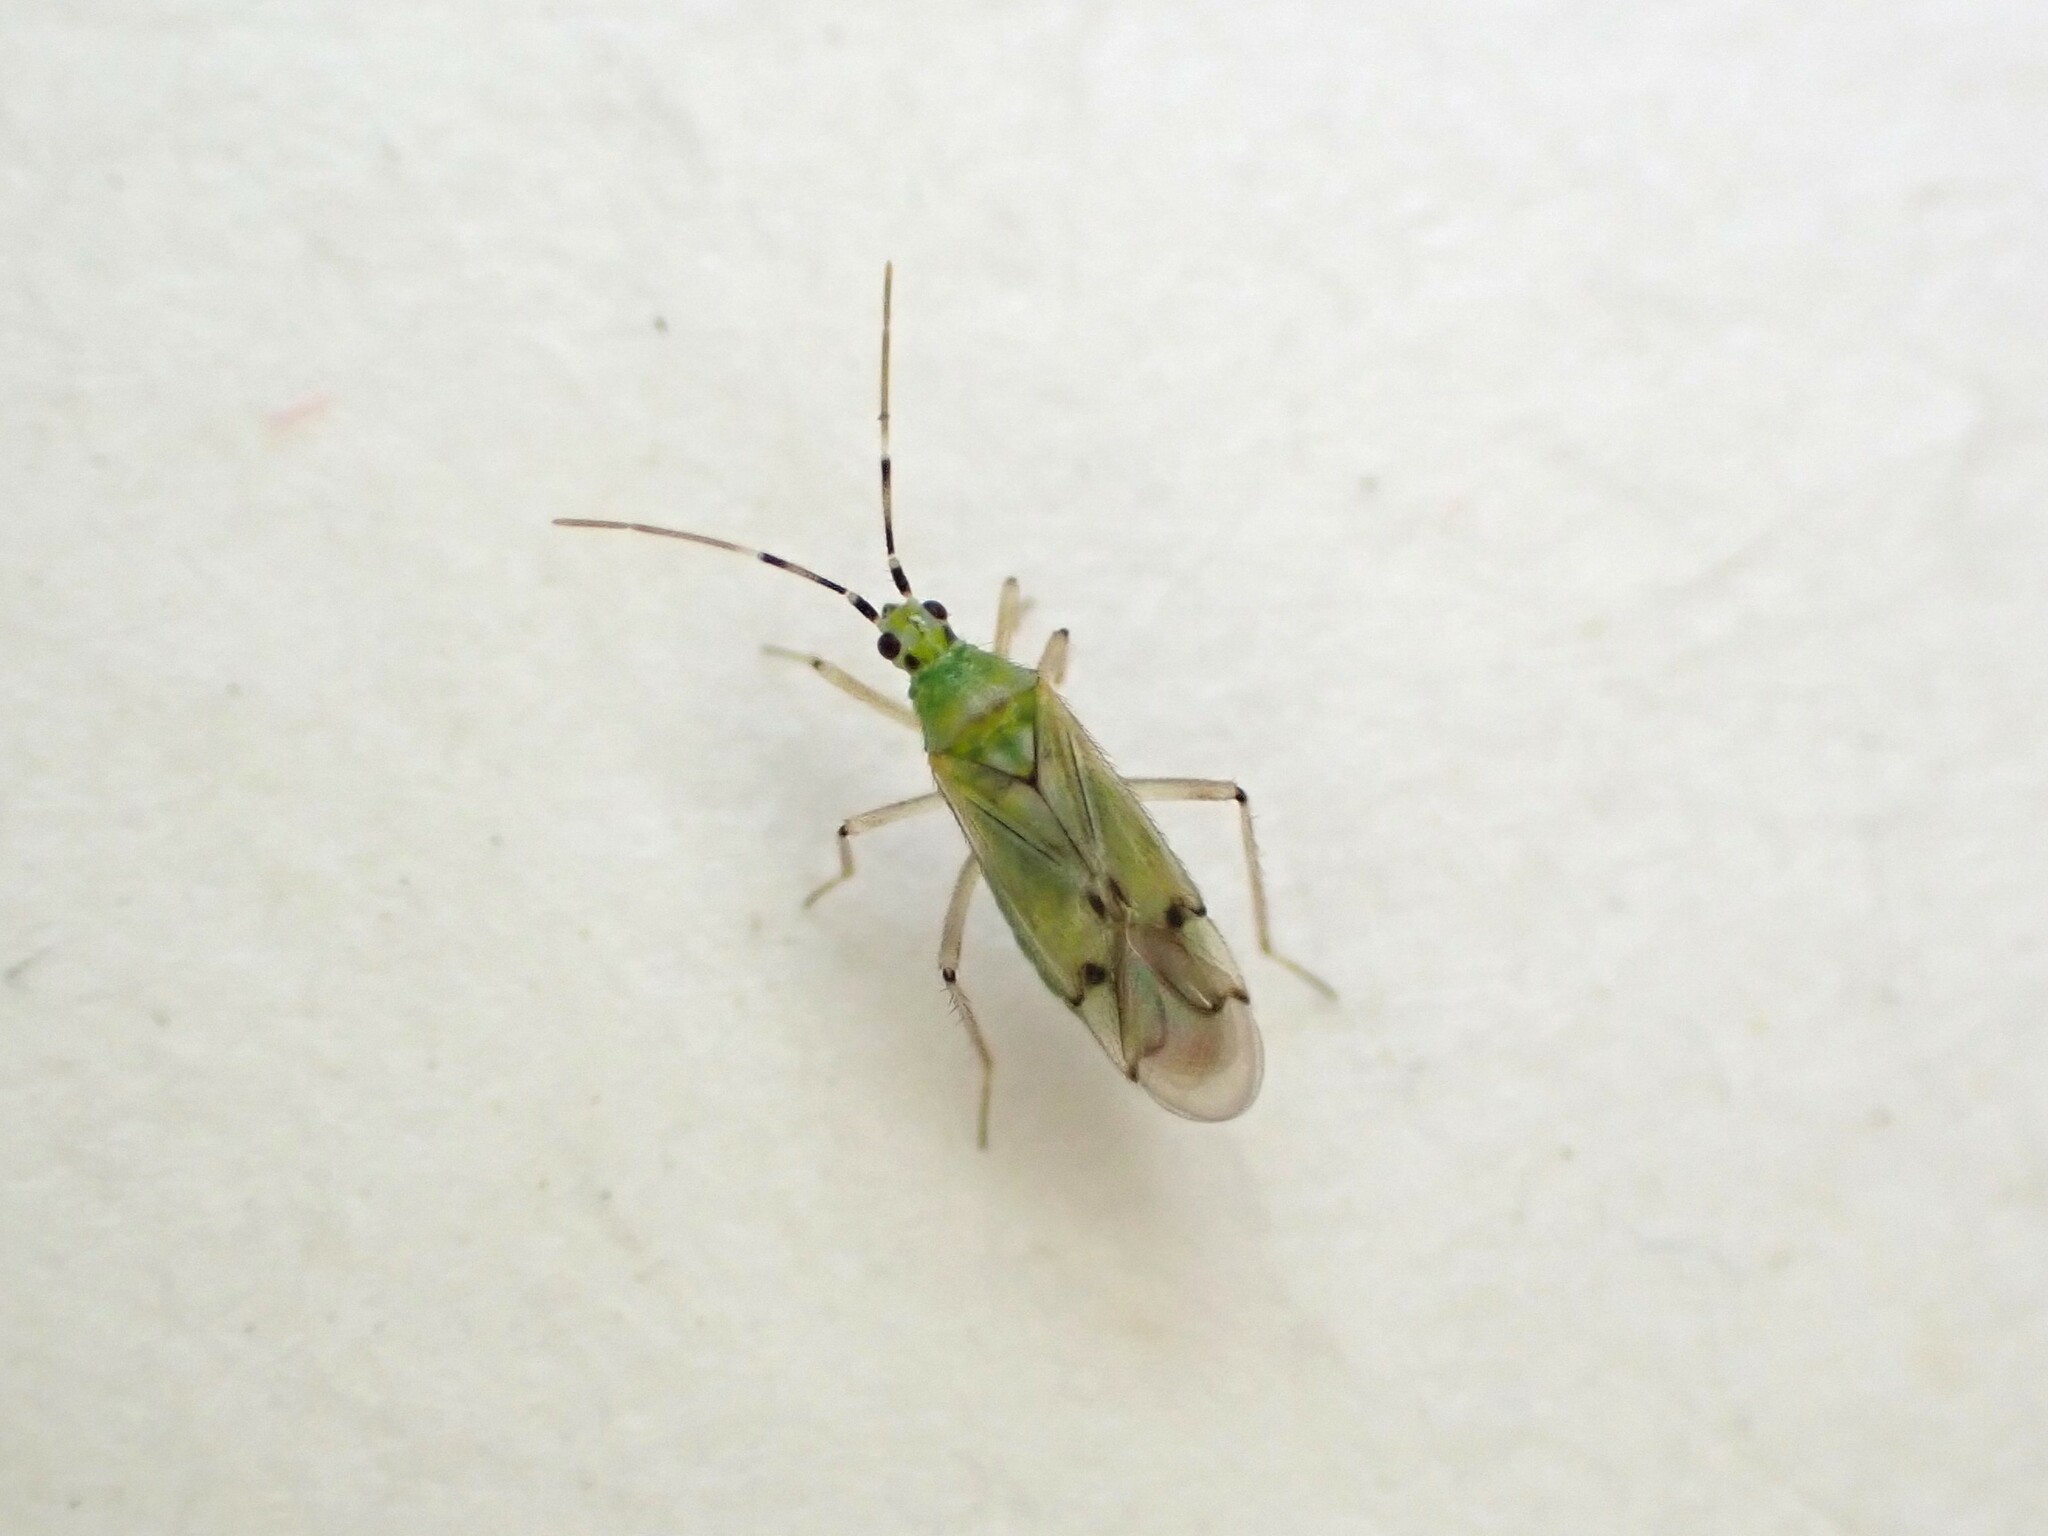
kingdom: Animalia
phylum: Arthropoda
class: Insecta
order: Hemiptera
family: Miridae
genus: Engytatus
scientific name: Engytatus nicotianae
